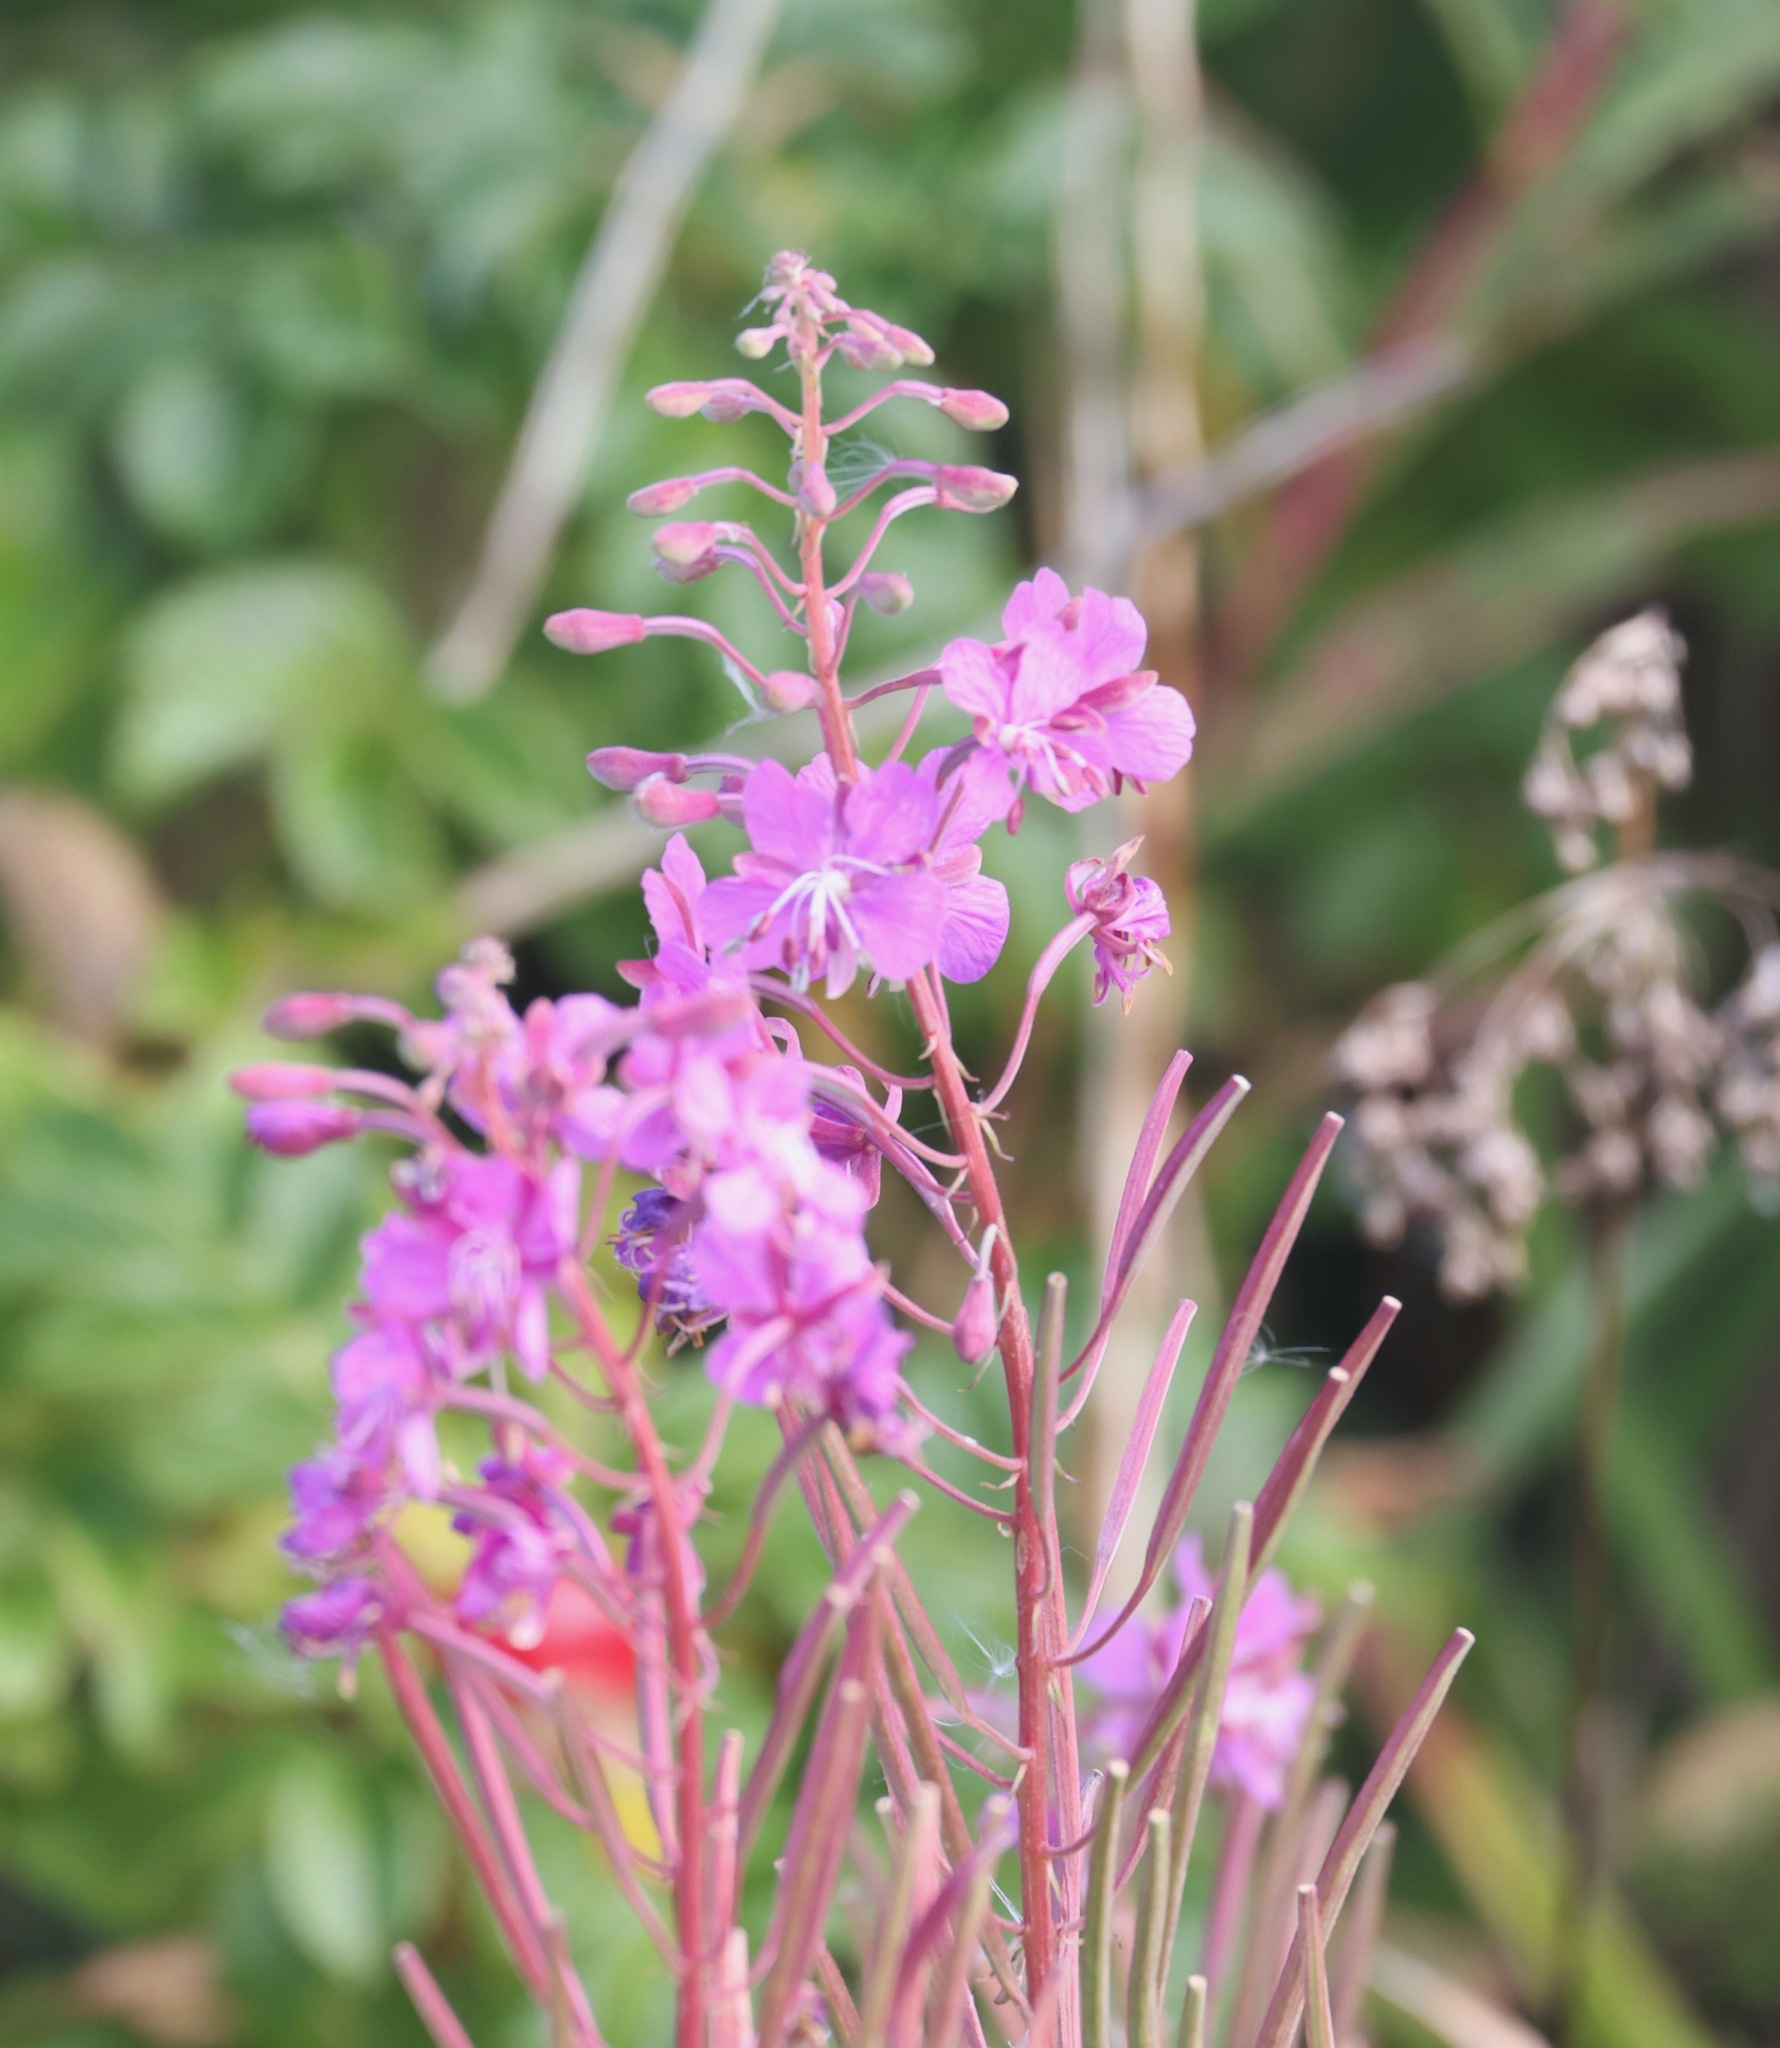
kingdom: Plantae
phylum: Tracheophyta
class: Magnoliopsida
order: Myrtales
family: Onagraceae
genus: Chamaenerion
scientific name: Chamaenerion angustifolium
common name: Fireweed
